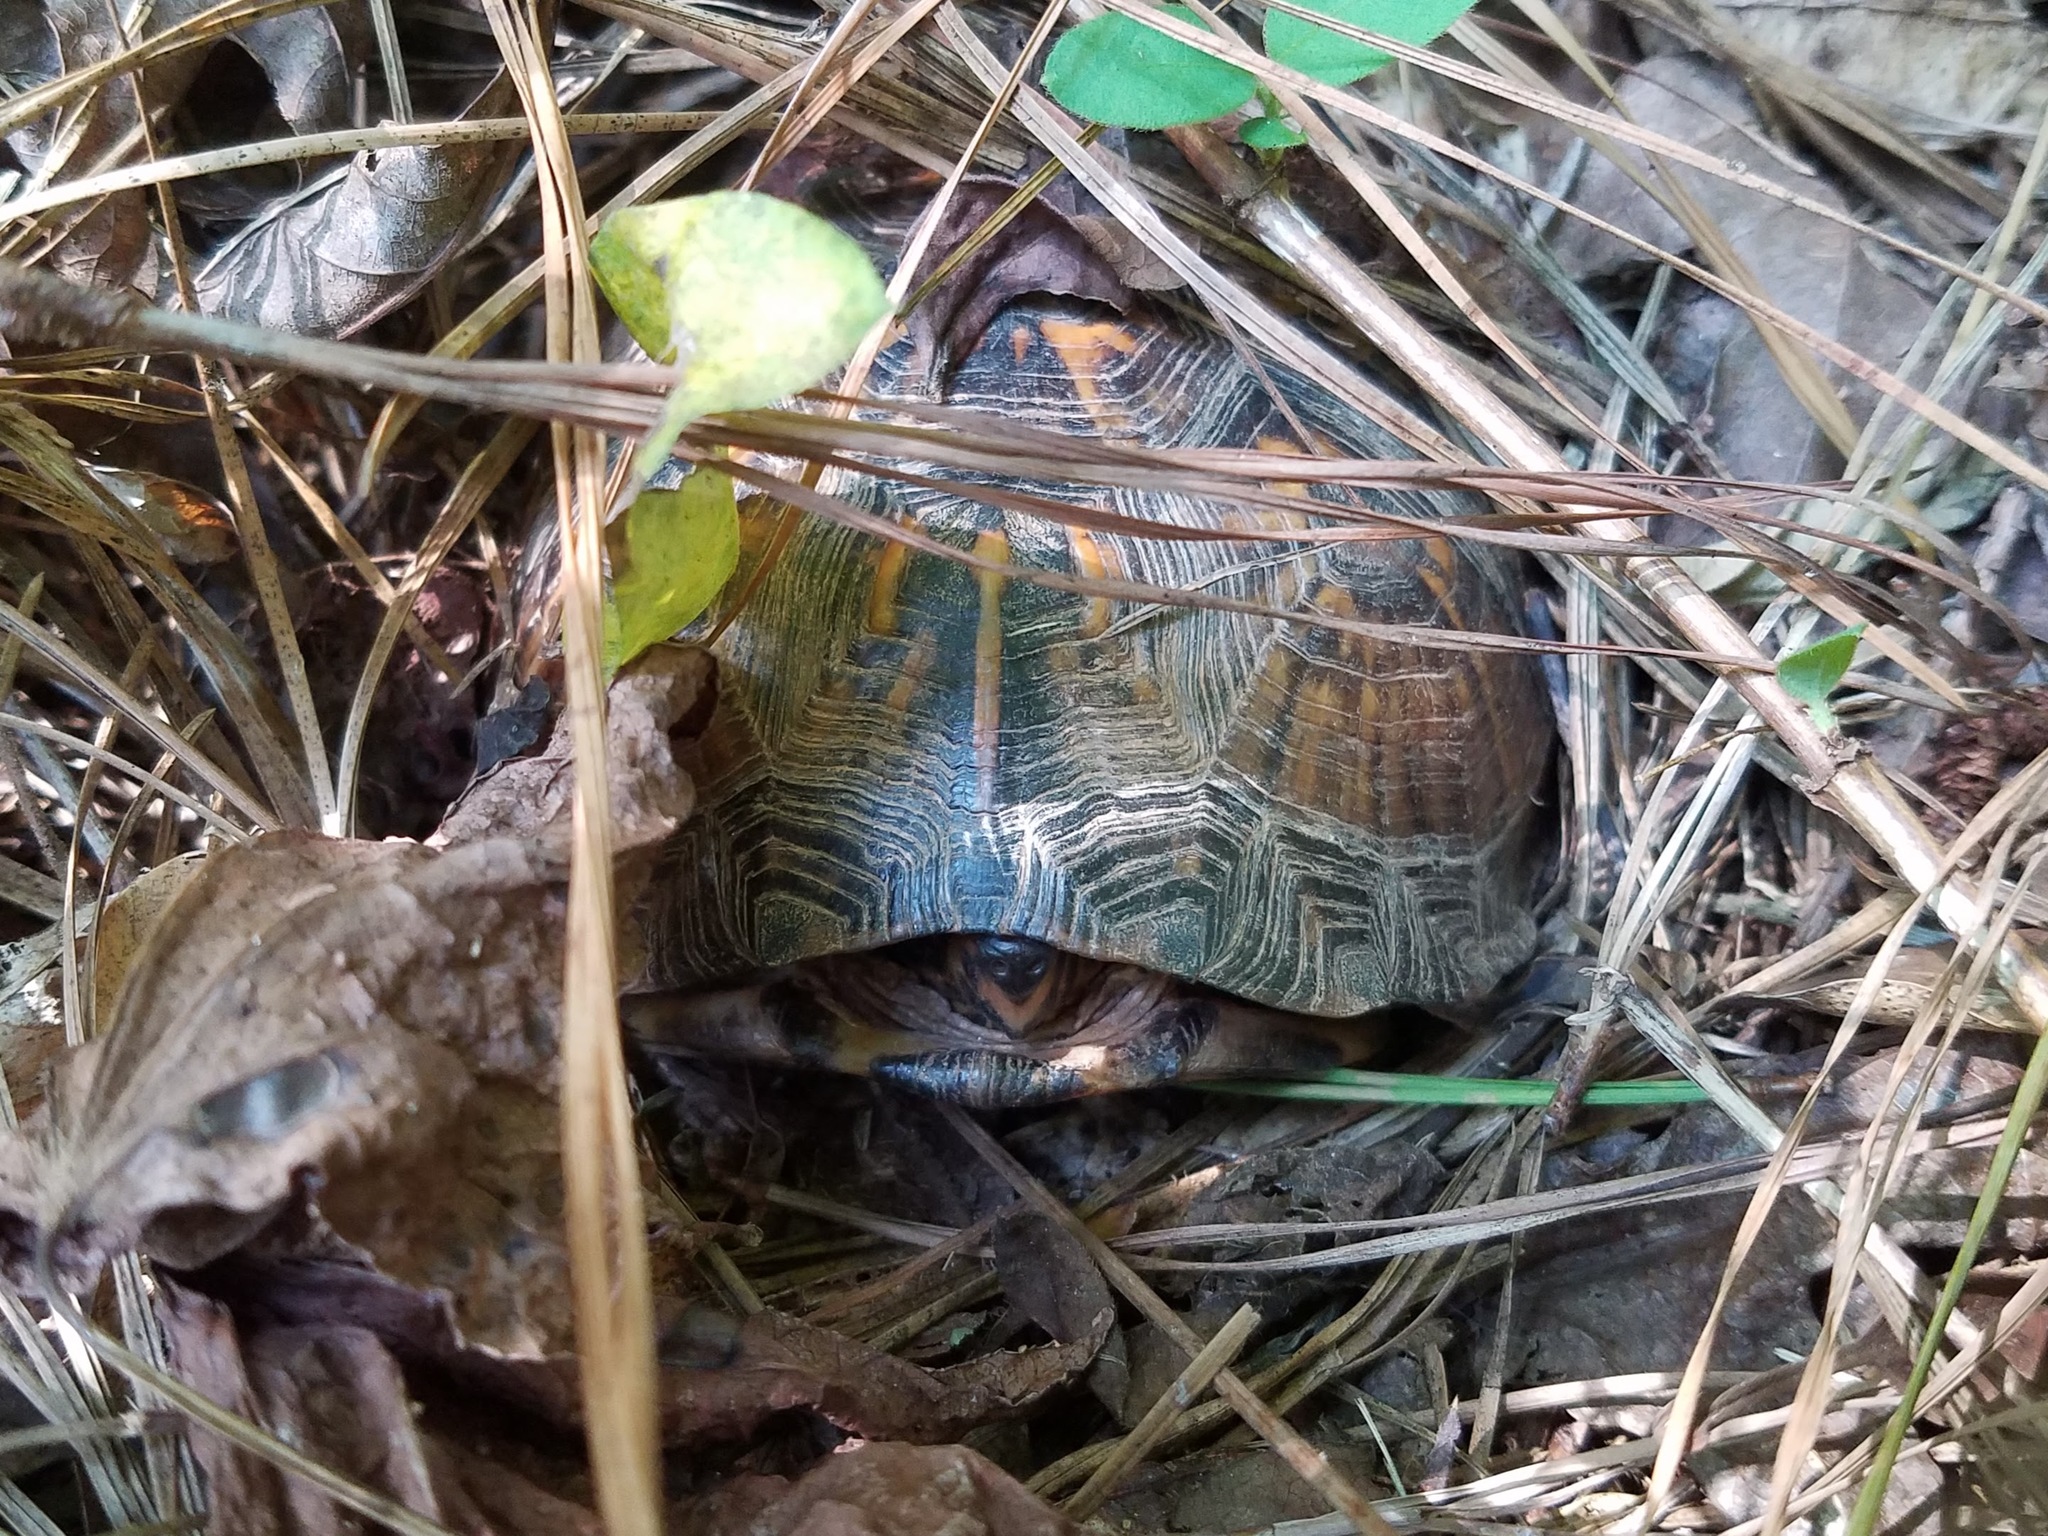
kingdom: Animalia
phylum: Chordata
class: Testudines
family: Emydidae
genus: Terrapene
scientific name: Terrapene carolina
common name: Common box turtle
